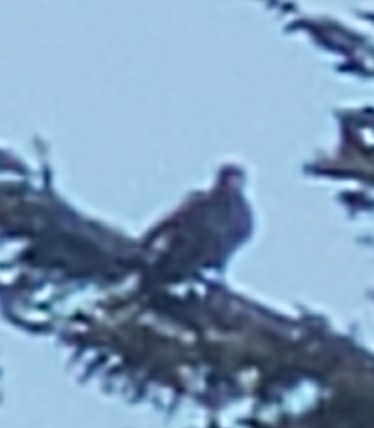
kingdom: Animalia
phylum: Chordata
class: Aves
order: Accipitriformes
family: Accipitridae
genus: Haliaeetus
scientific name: Haliaeetus leucocephalus
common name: Bald eagle
